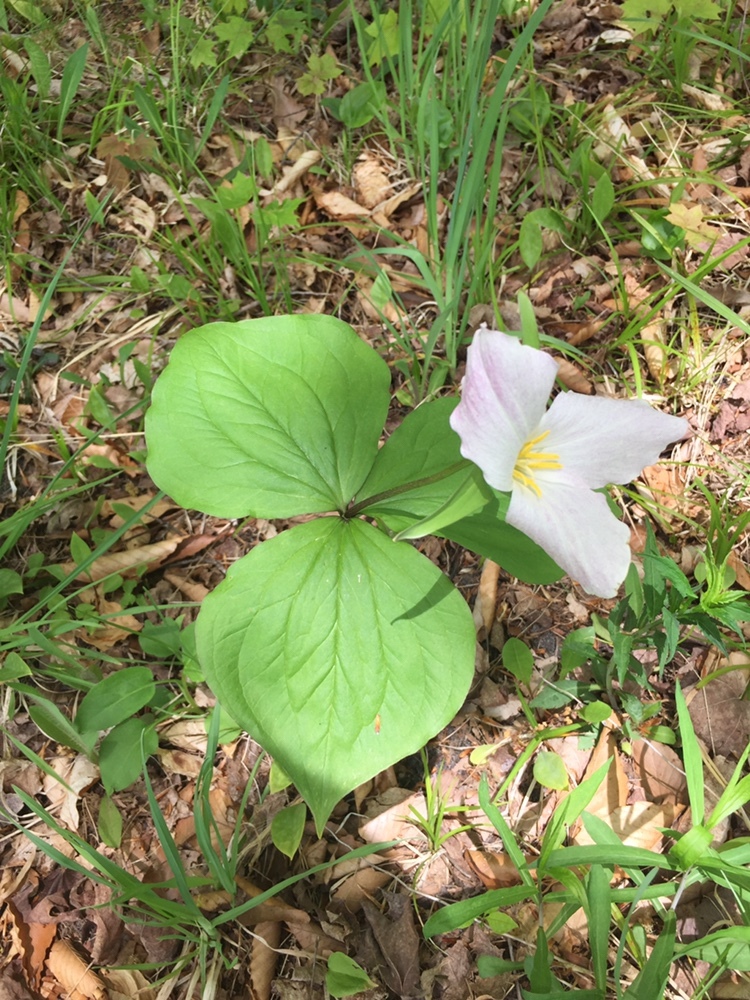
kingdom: Plantae
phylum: Tracheophyta
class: Liliopsida
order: Liliales
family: Melanthiaceae
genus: Trillium
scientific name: Trillium grandiflorum
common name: Great white trillium
